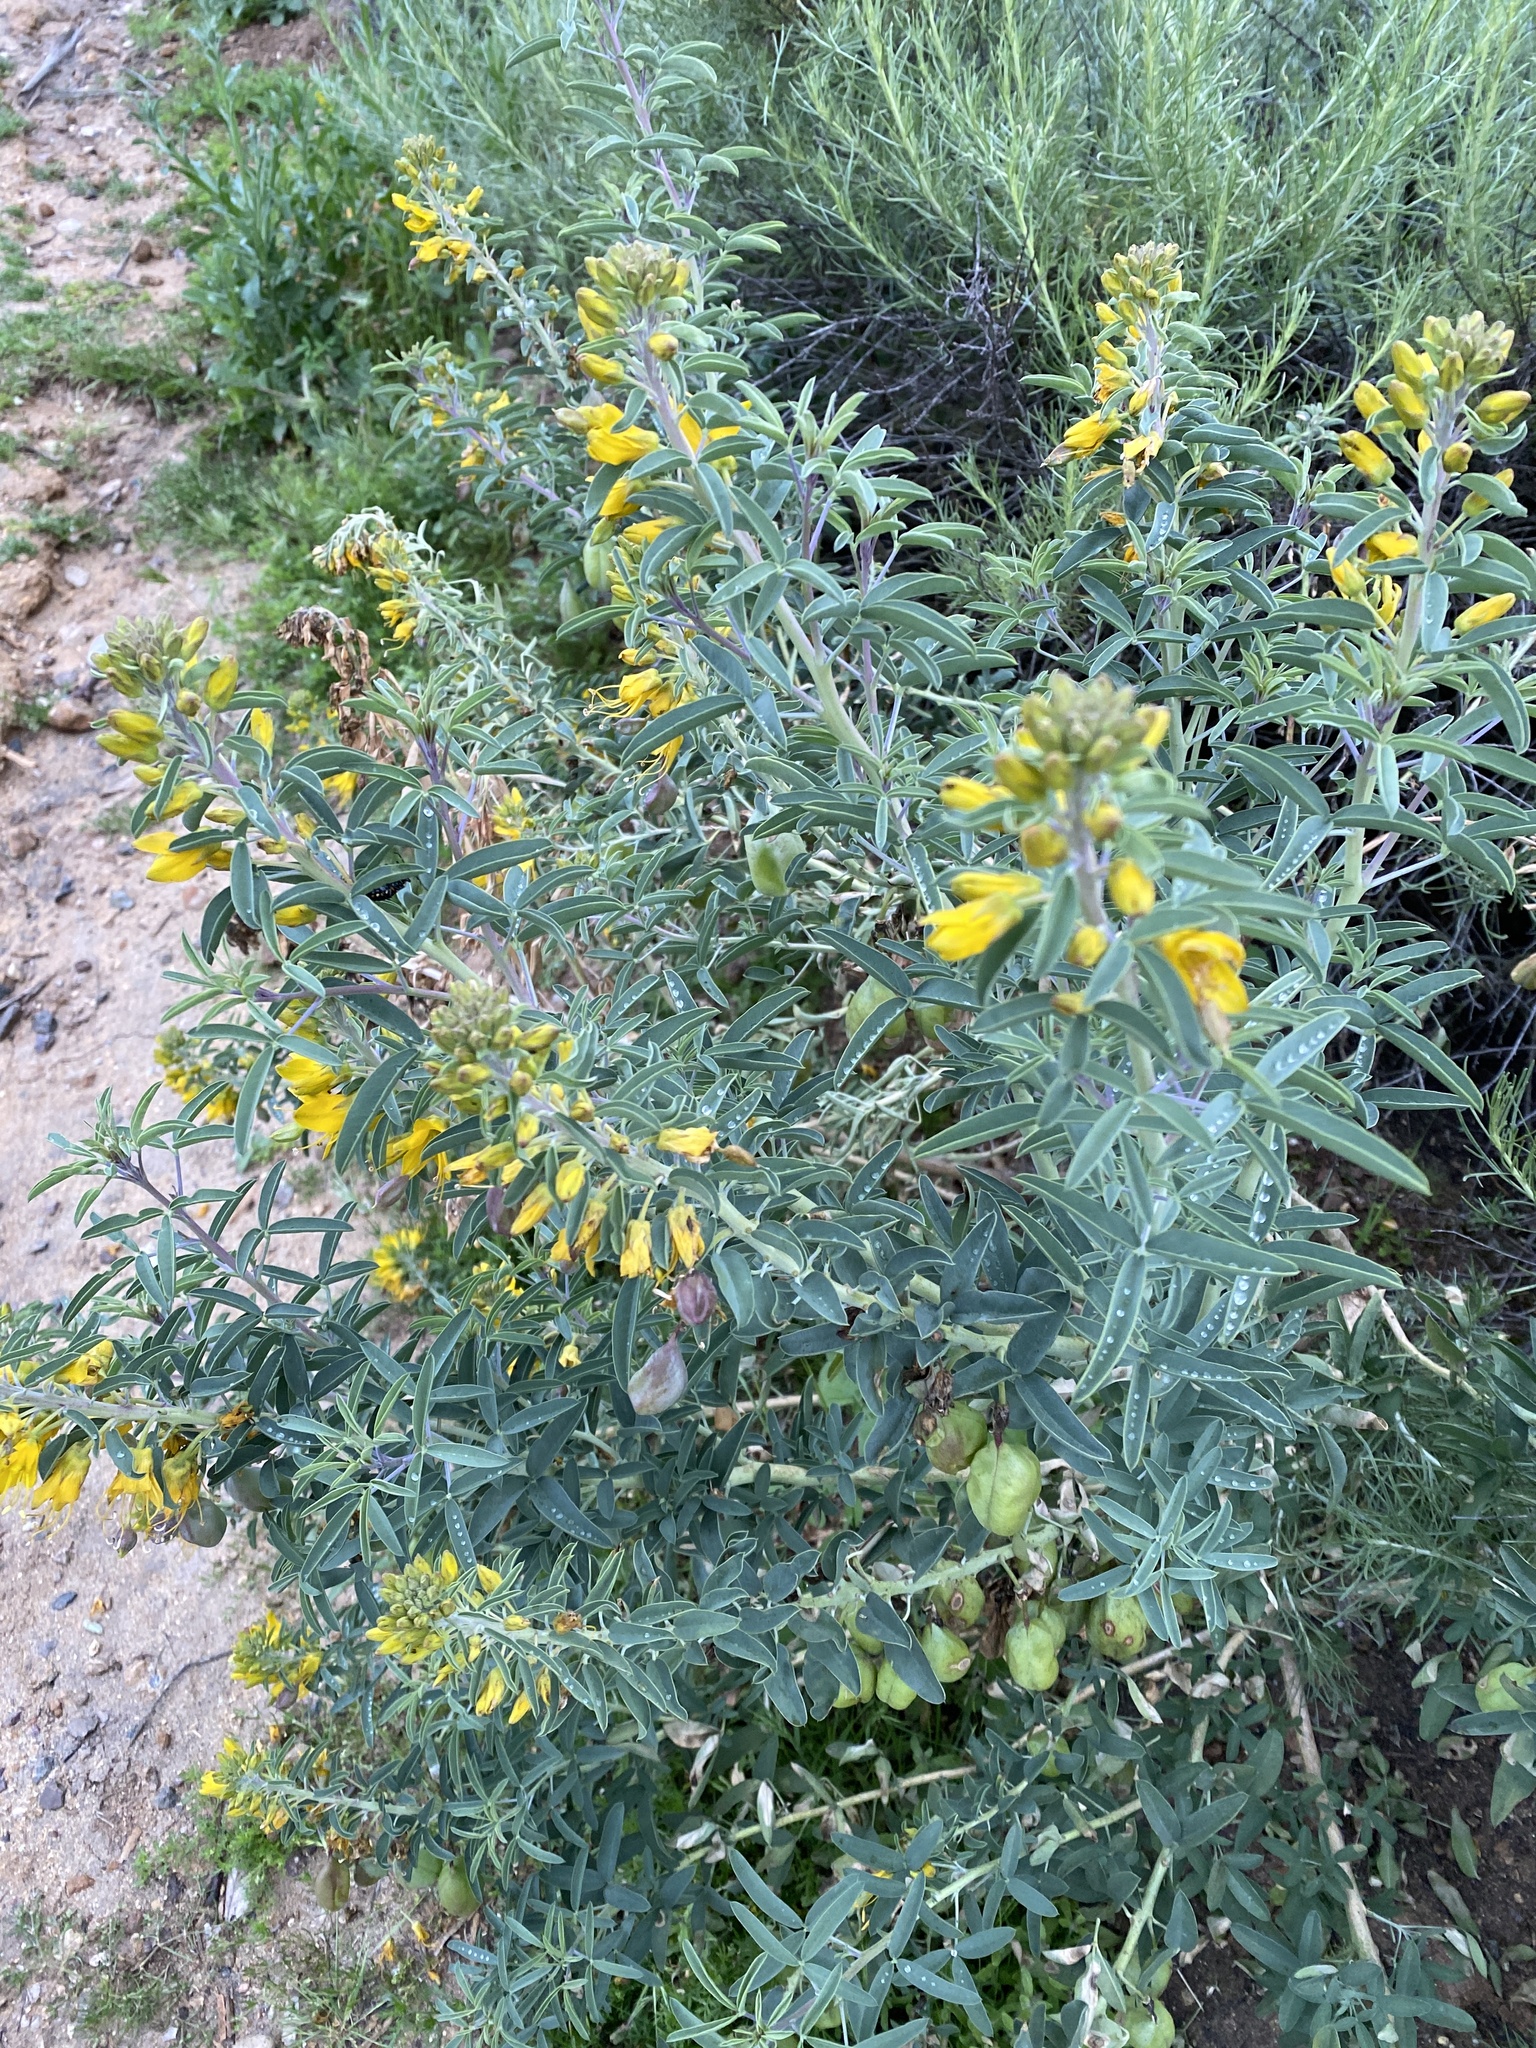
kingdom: Plantae
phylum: Tracheophyta
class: Magnoliopsida
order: Brassicales
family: Cleomaceae
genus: Cleomella
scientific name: Cleomella arborea
